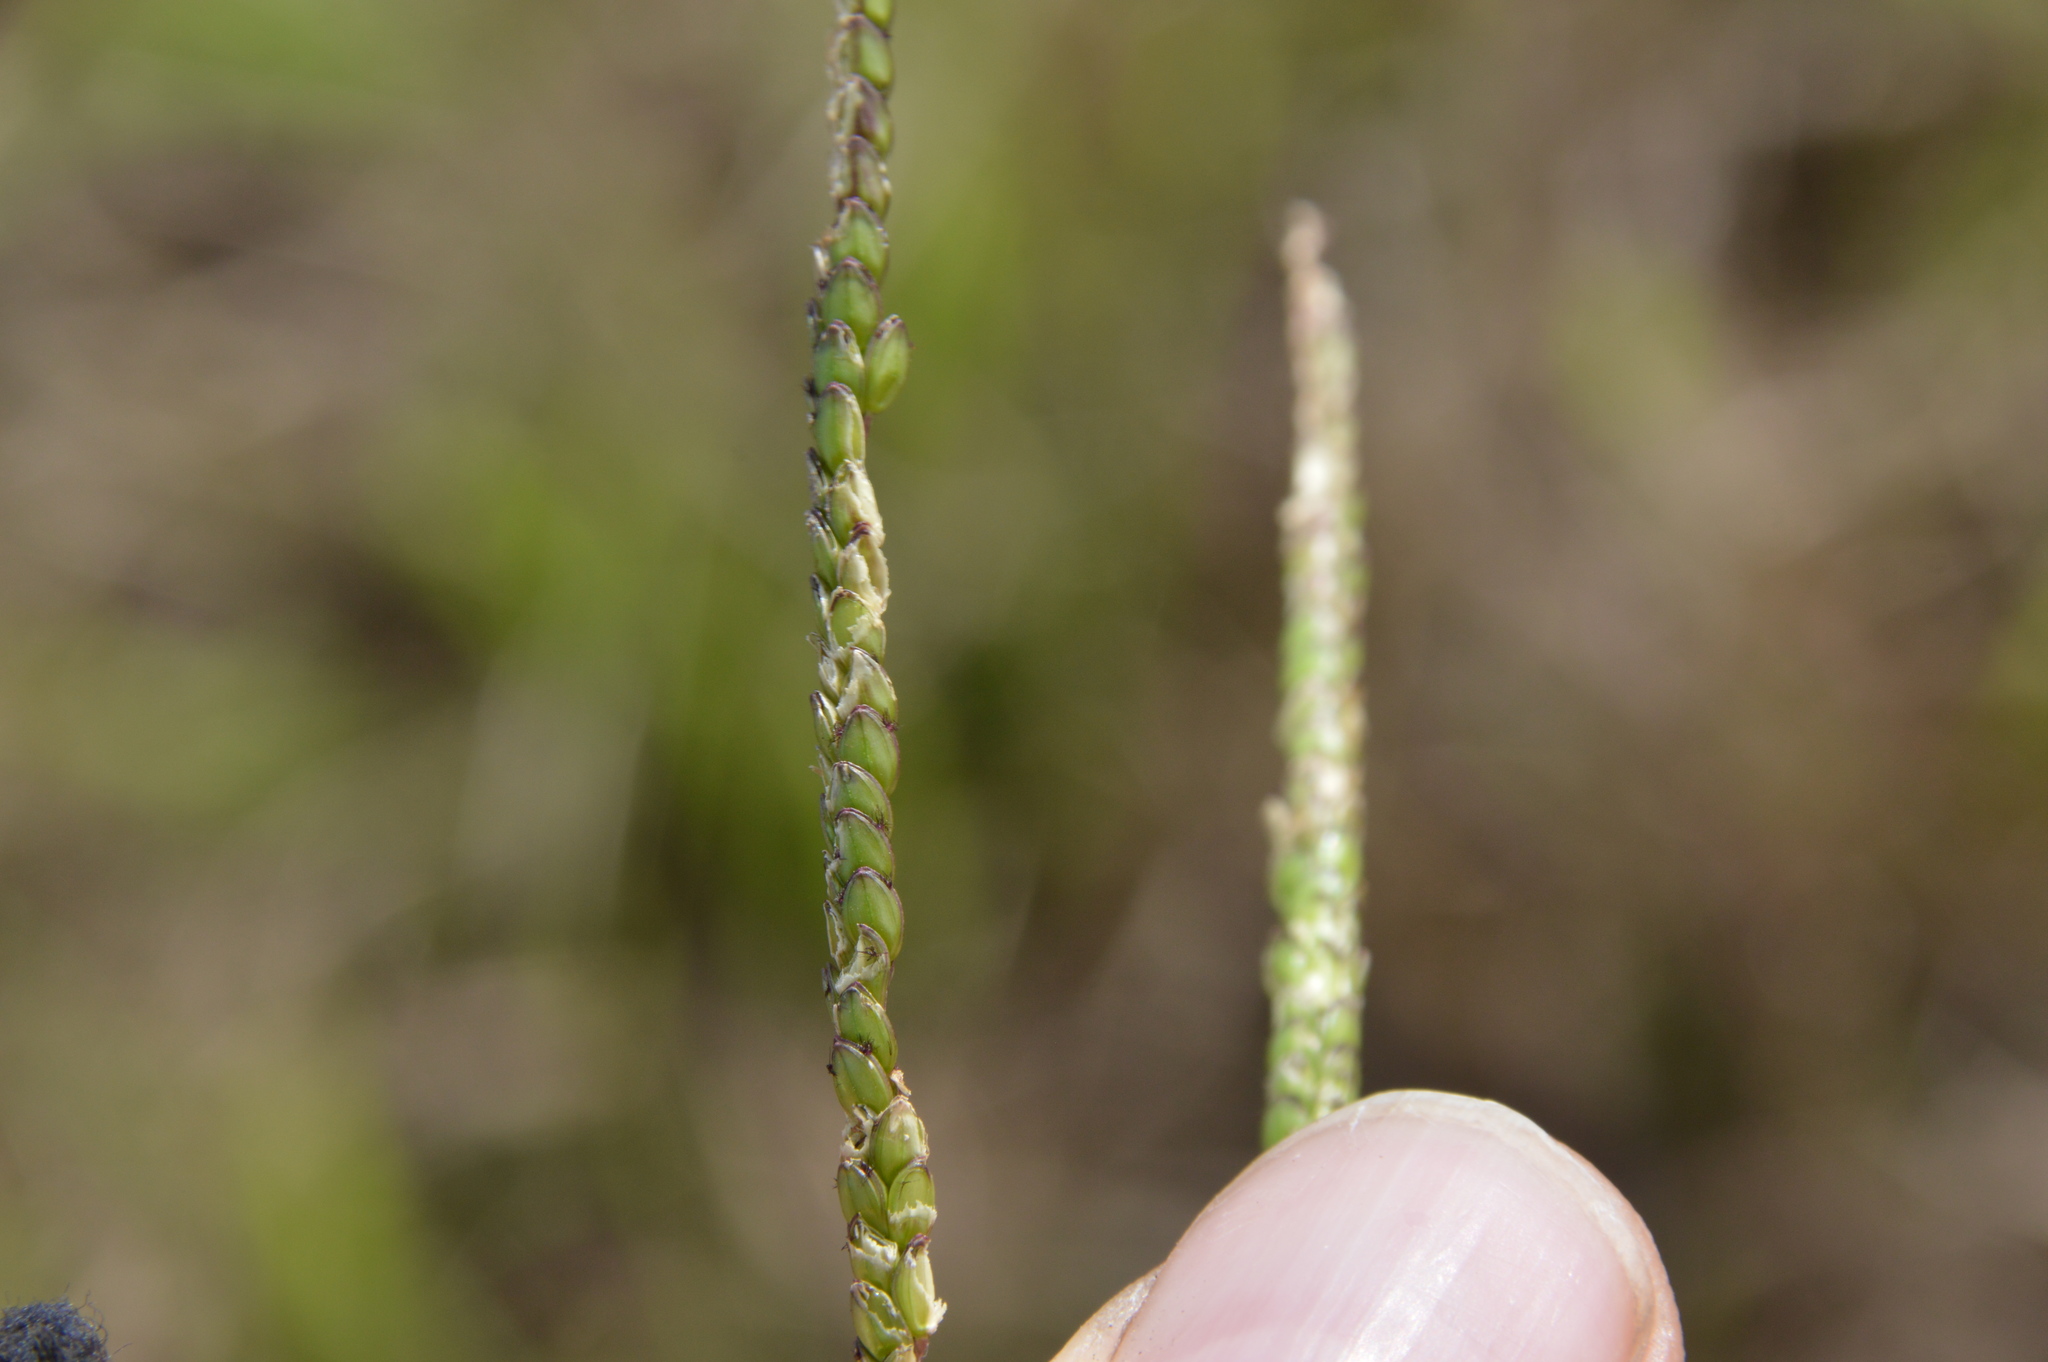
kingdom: Plantae
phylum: Tracheophyta
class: Liliopsida
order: Poales
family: Poaceae
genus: Paspalum
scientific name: Paspalum notatum
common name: Bahiagrass
